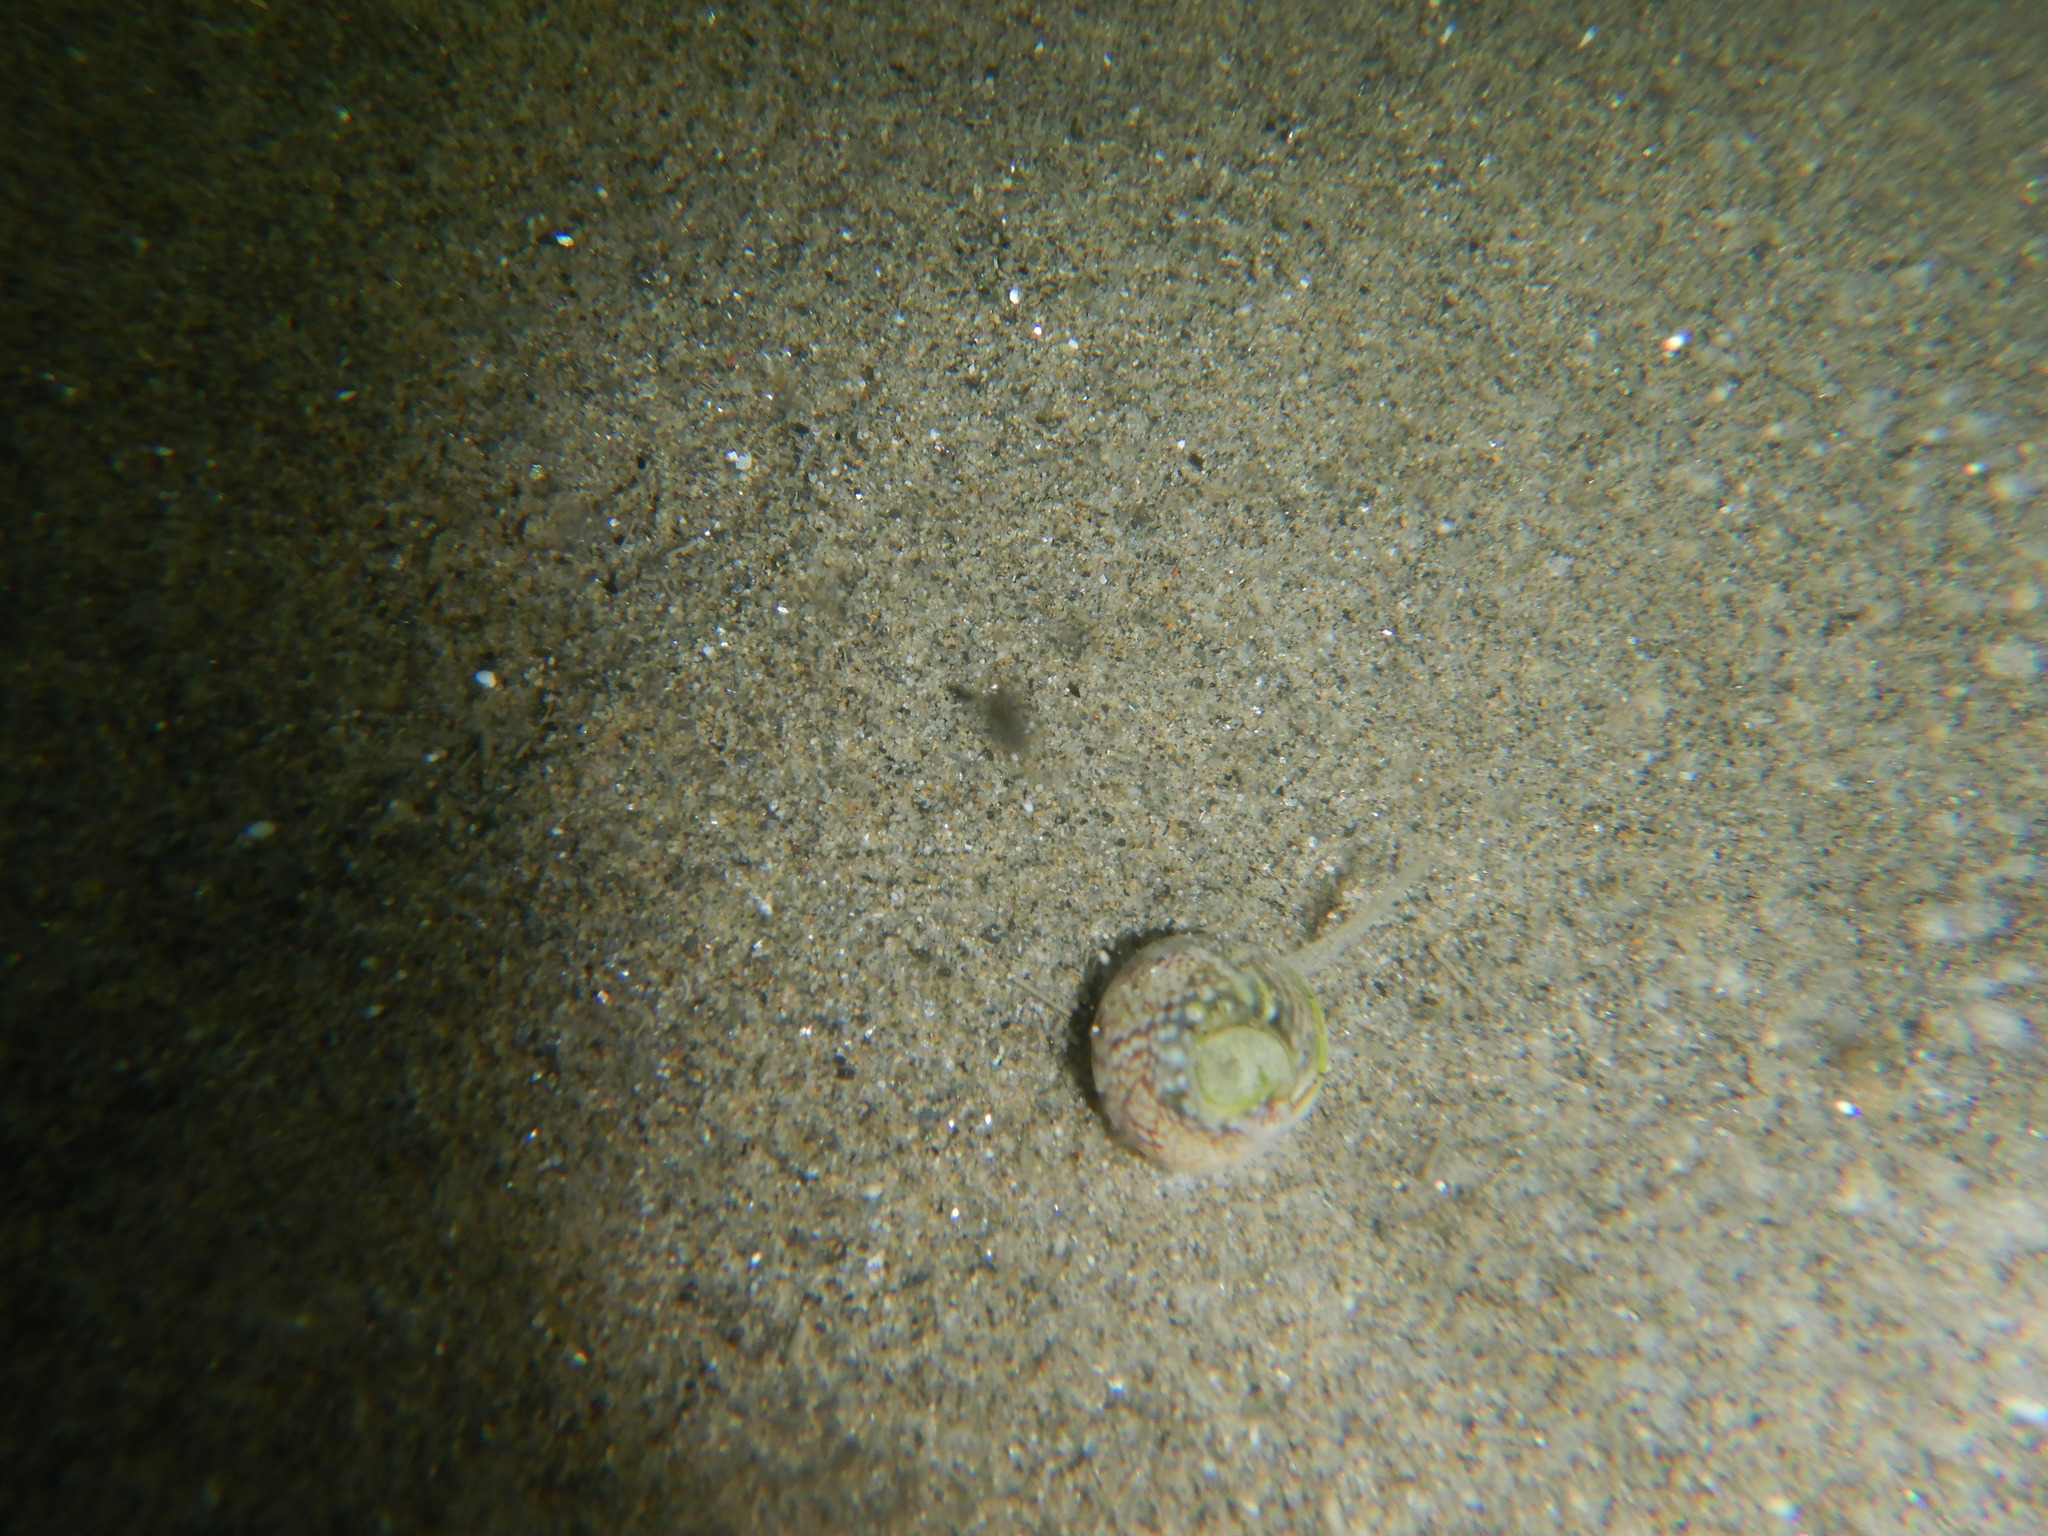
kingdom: Animalia
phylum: Mollusca
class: Gastropoda
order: Neogastropoda
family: Nassariidae
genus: Tritia
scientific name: Tritia neritea
